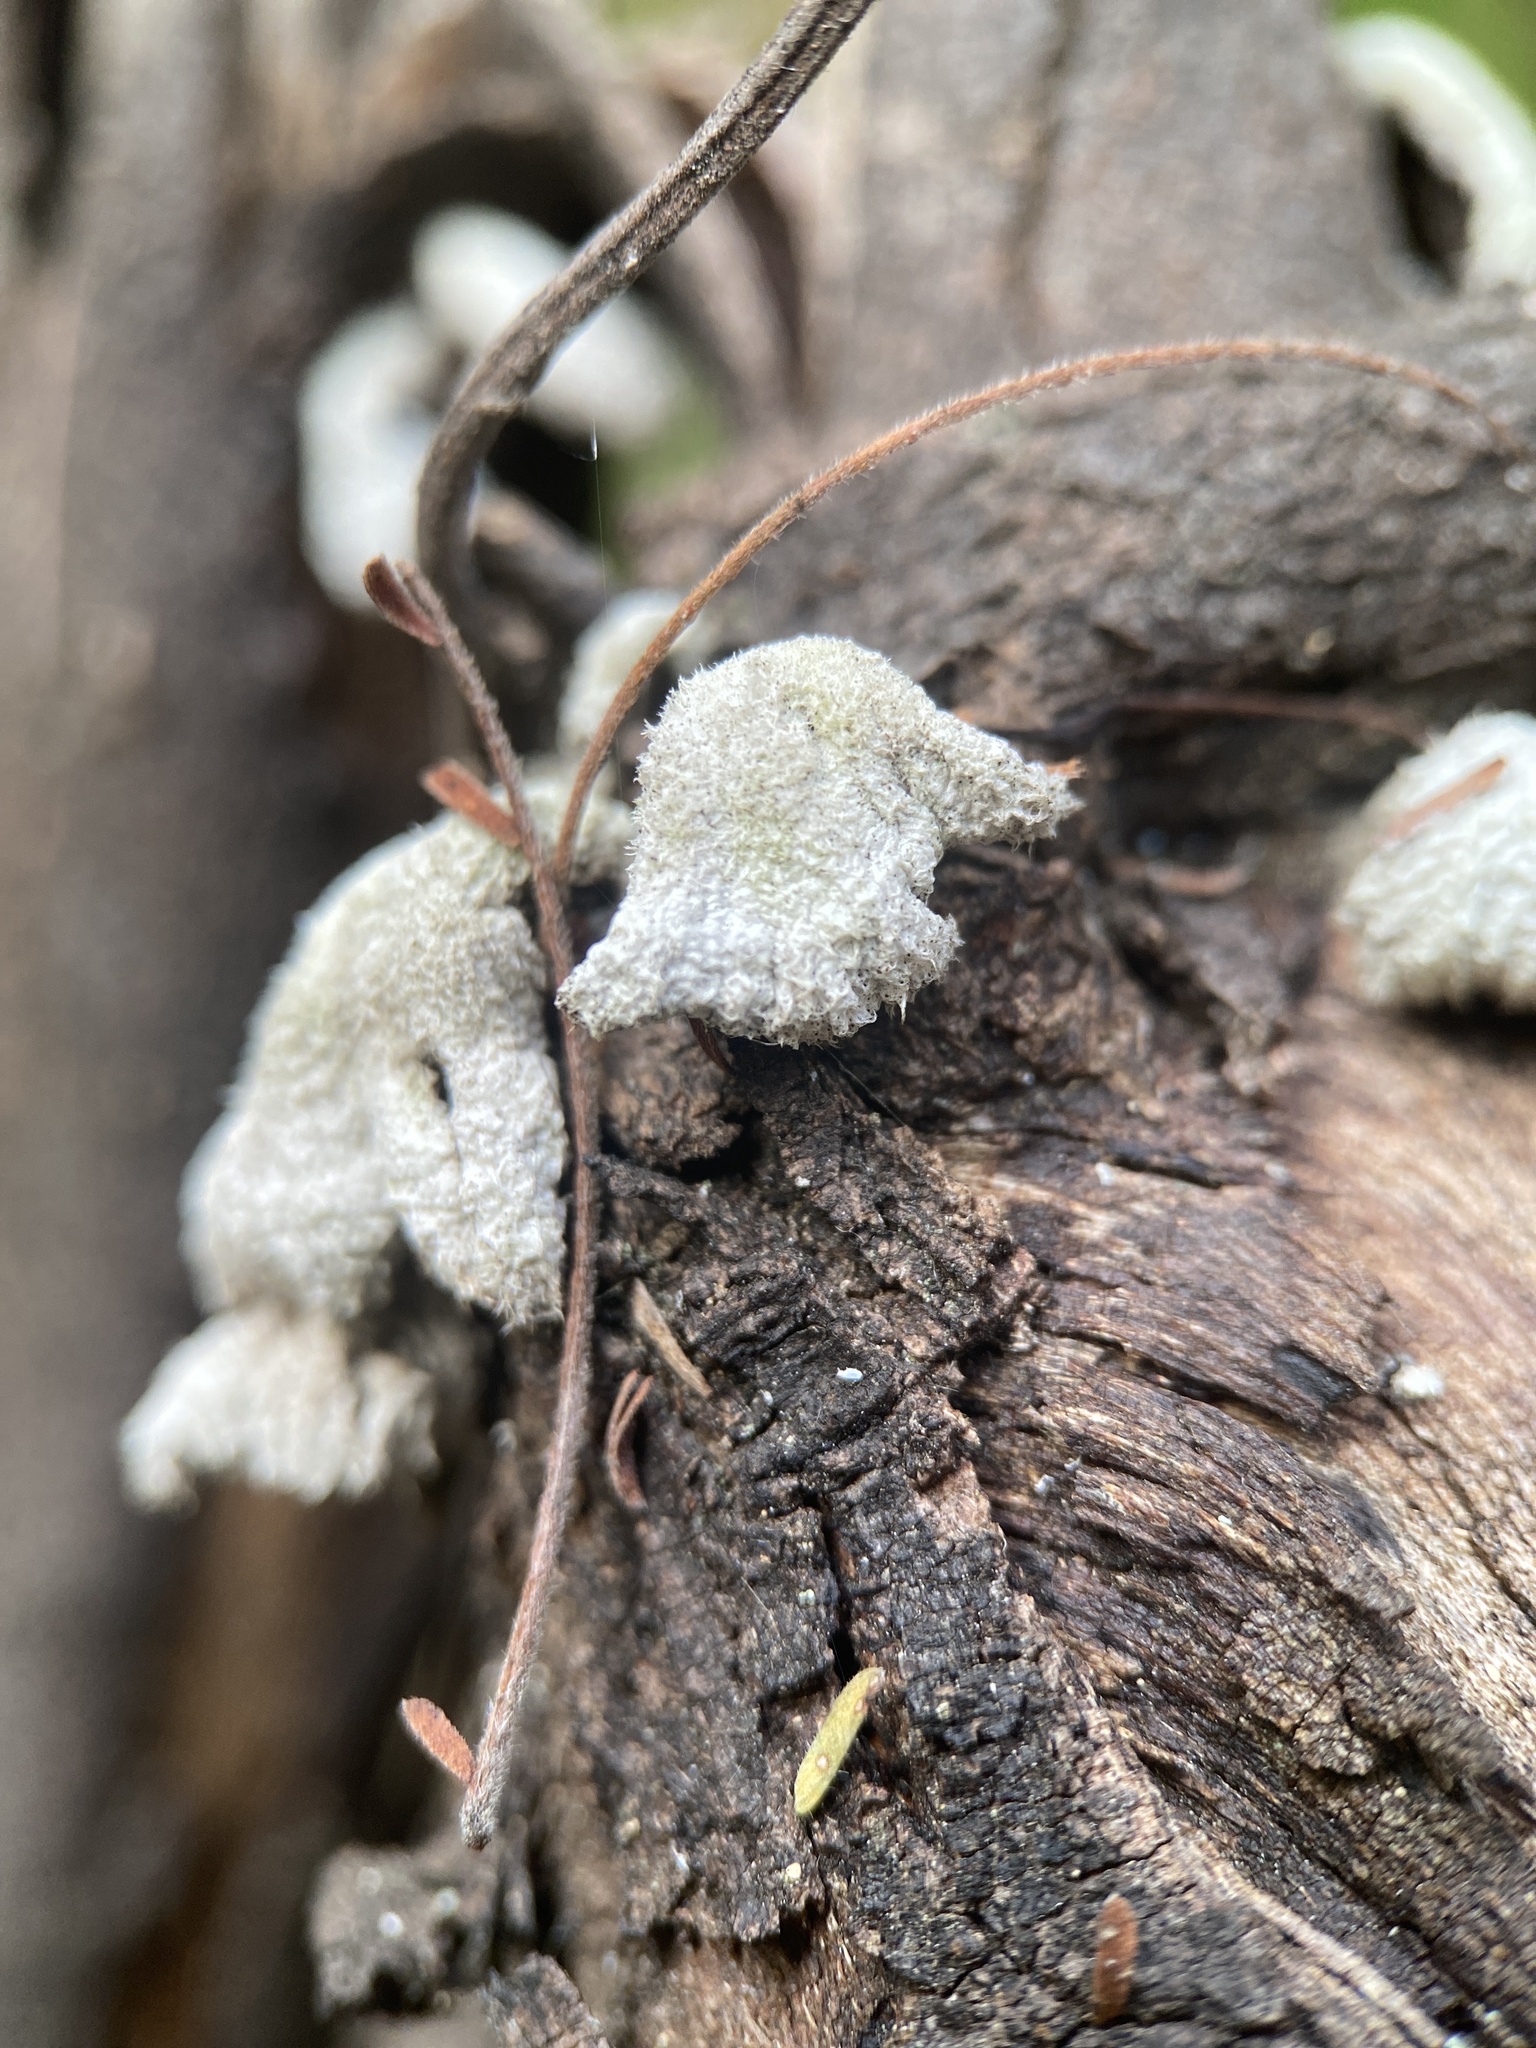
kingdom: Fungi
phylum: Basidiomycota
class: Agaricomycetes
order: Agaricales
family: Schizophyllaceae
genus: Schizophyllum
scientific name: Schizophyllum commune
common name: Common porecrust
